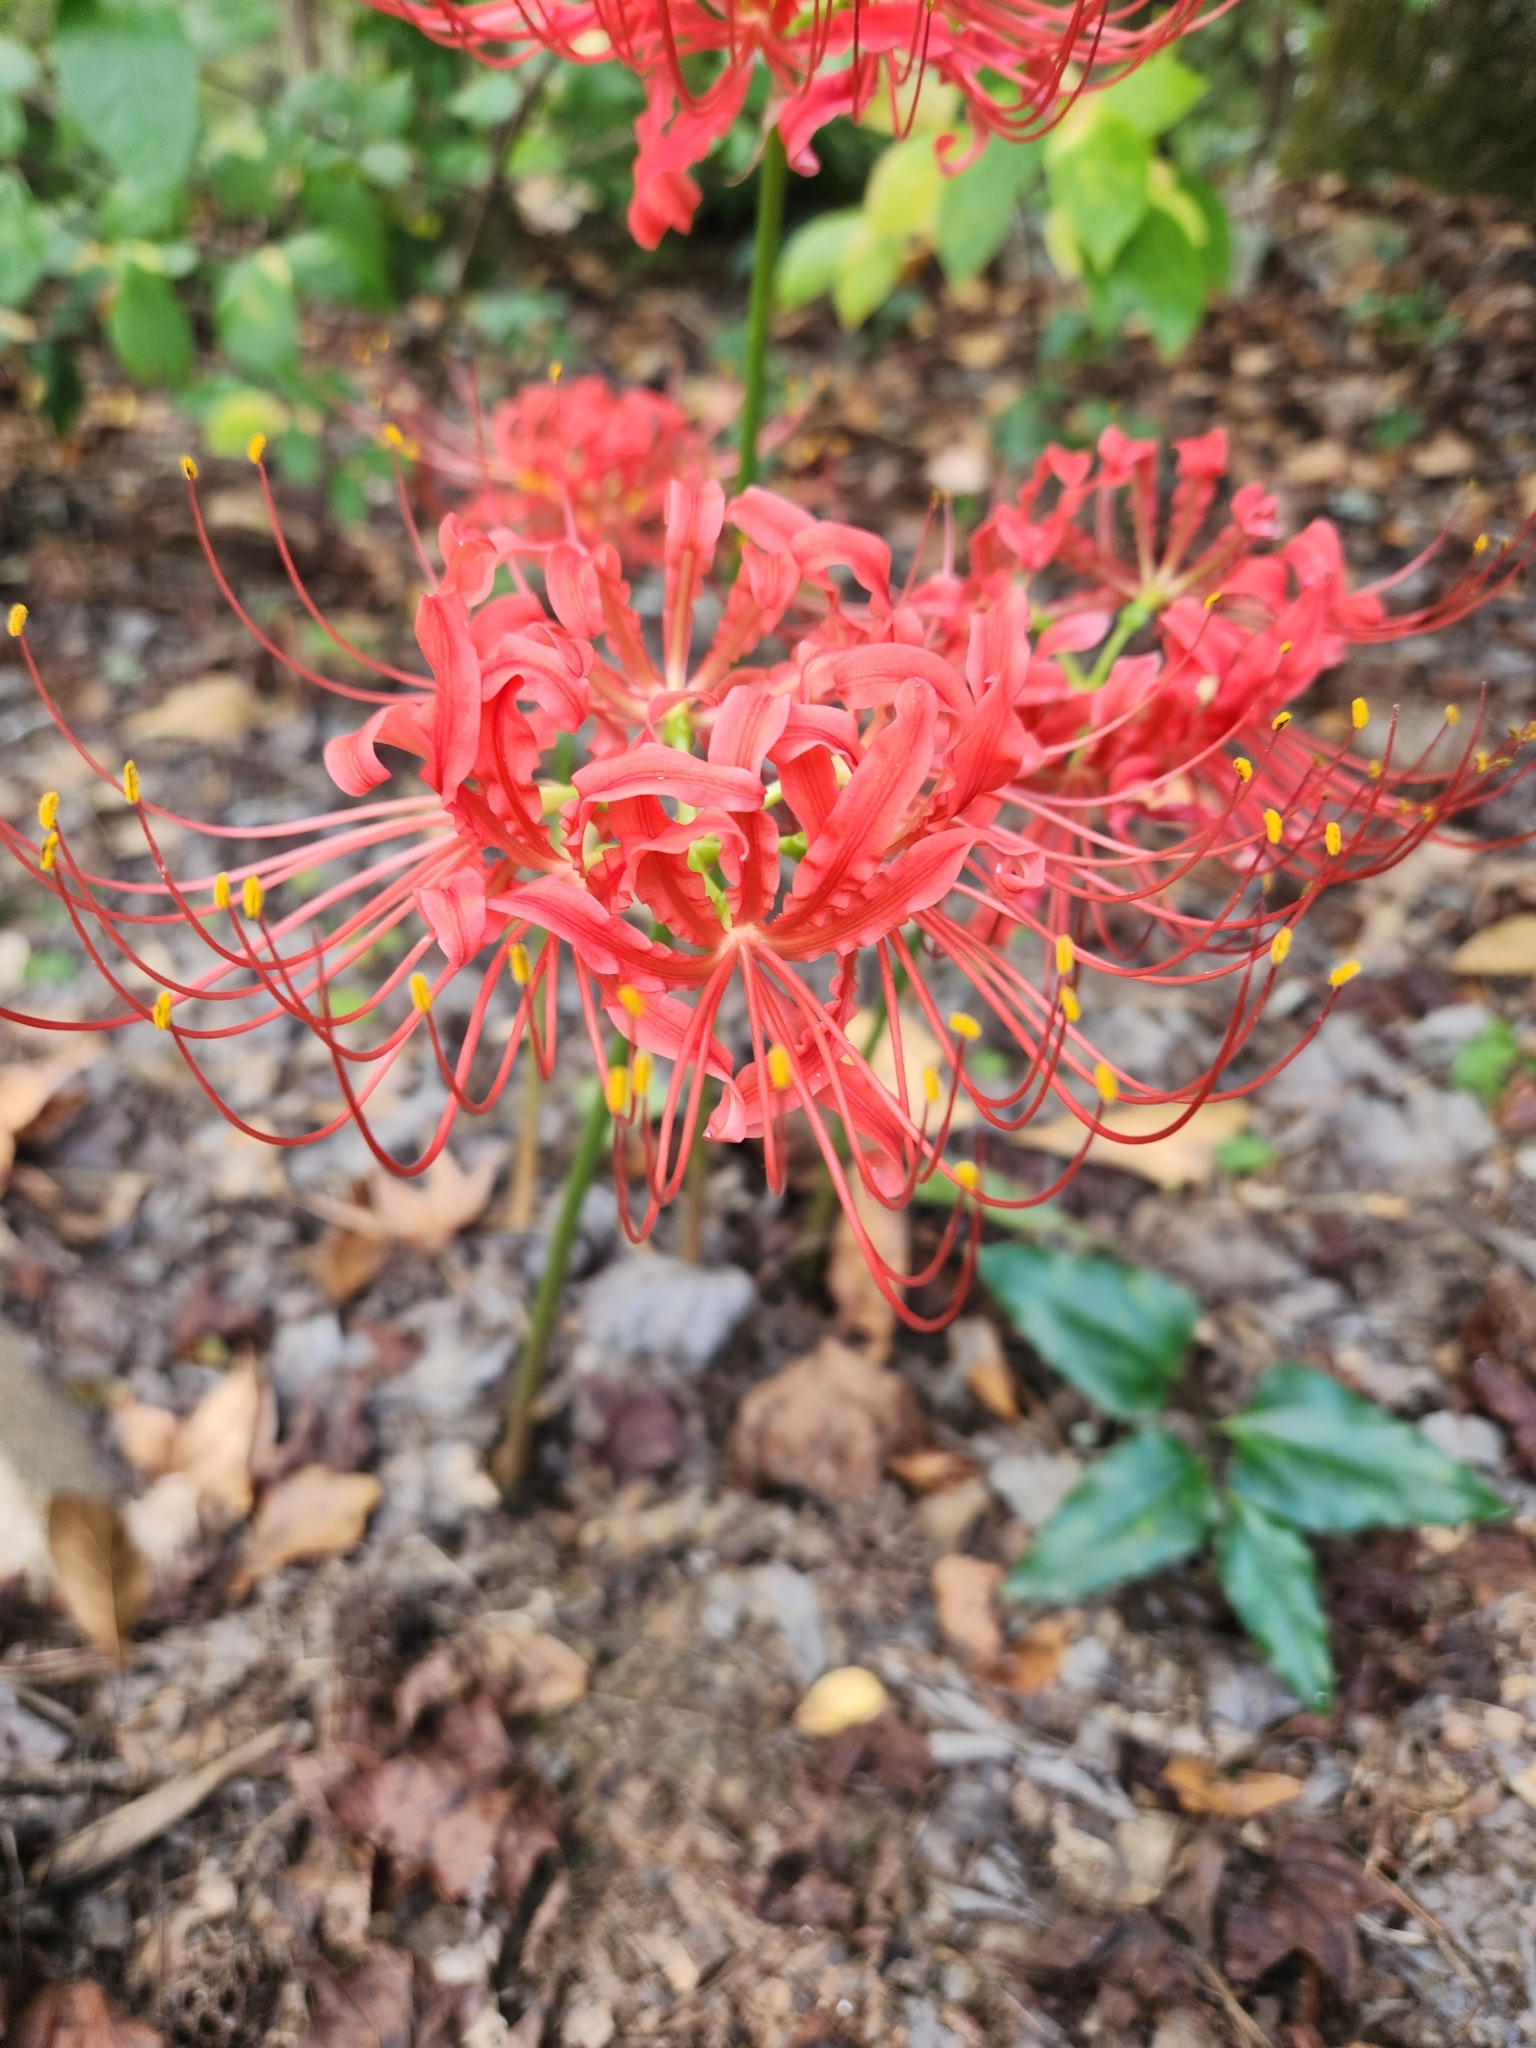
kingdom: Plantae
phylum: Tracheophyta
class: Liliopsida
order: Asparagales
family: Amaryllidaceae
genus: Lycoris
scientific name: Lycoris radiata
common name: Red spider lily
